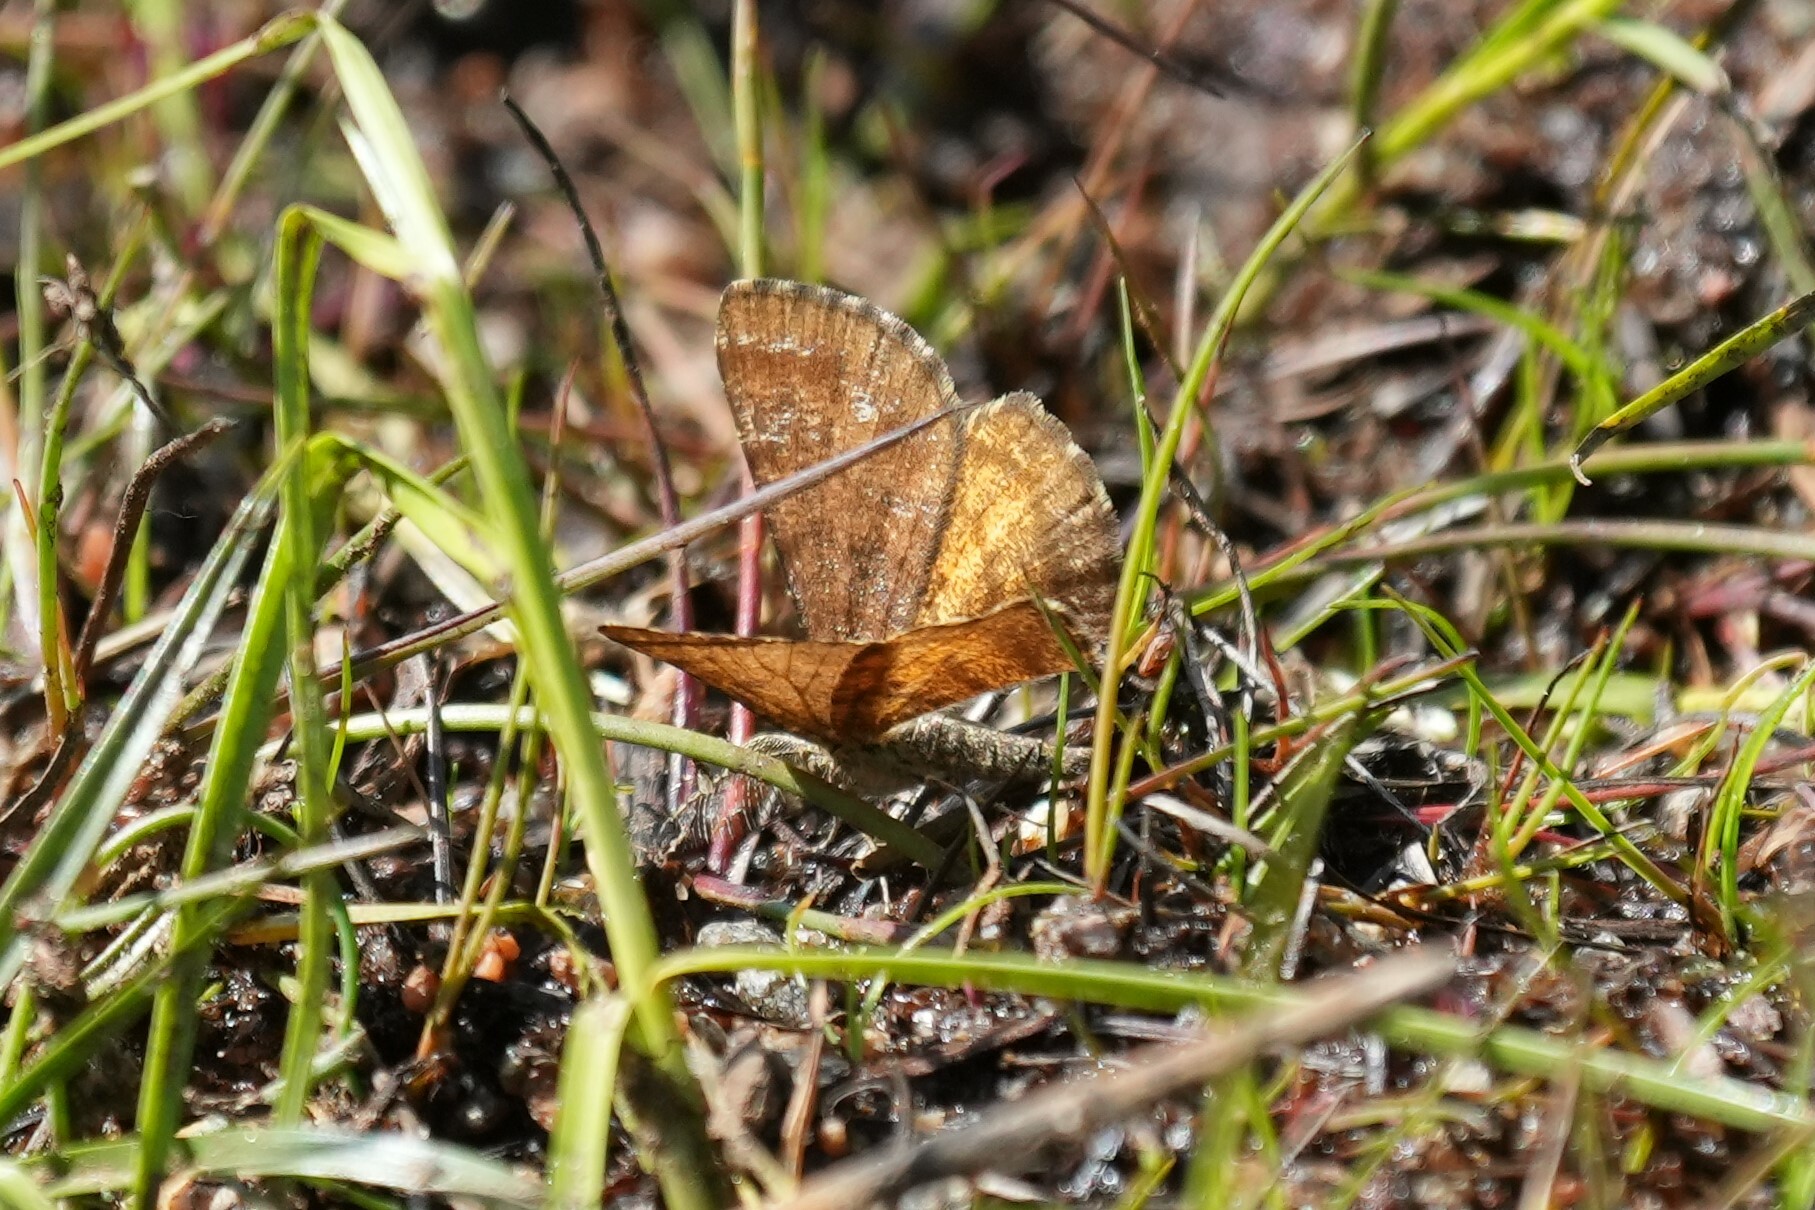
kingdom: Animalia
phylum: Arthropoda
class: Insecta
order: Lepidoptera
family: Geometridae
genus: Ematurga
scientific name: Ematurga amitaria
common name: Cranberry spanworm moth
